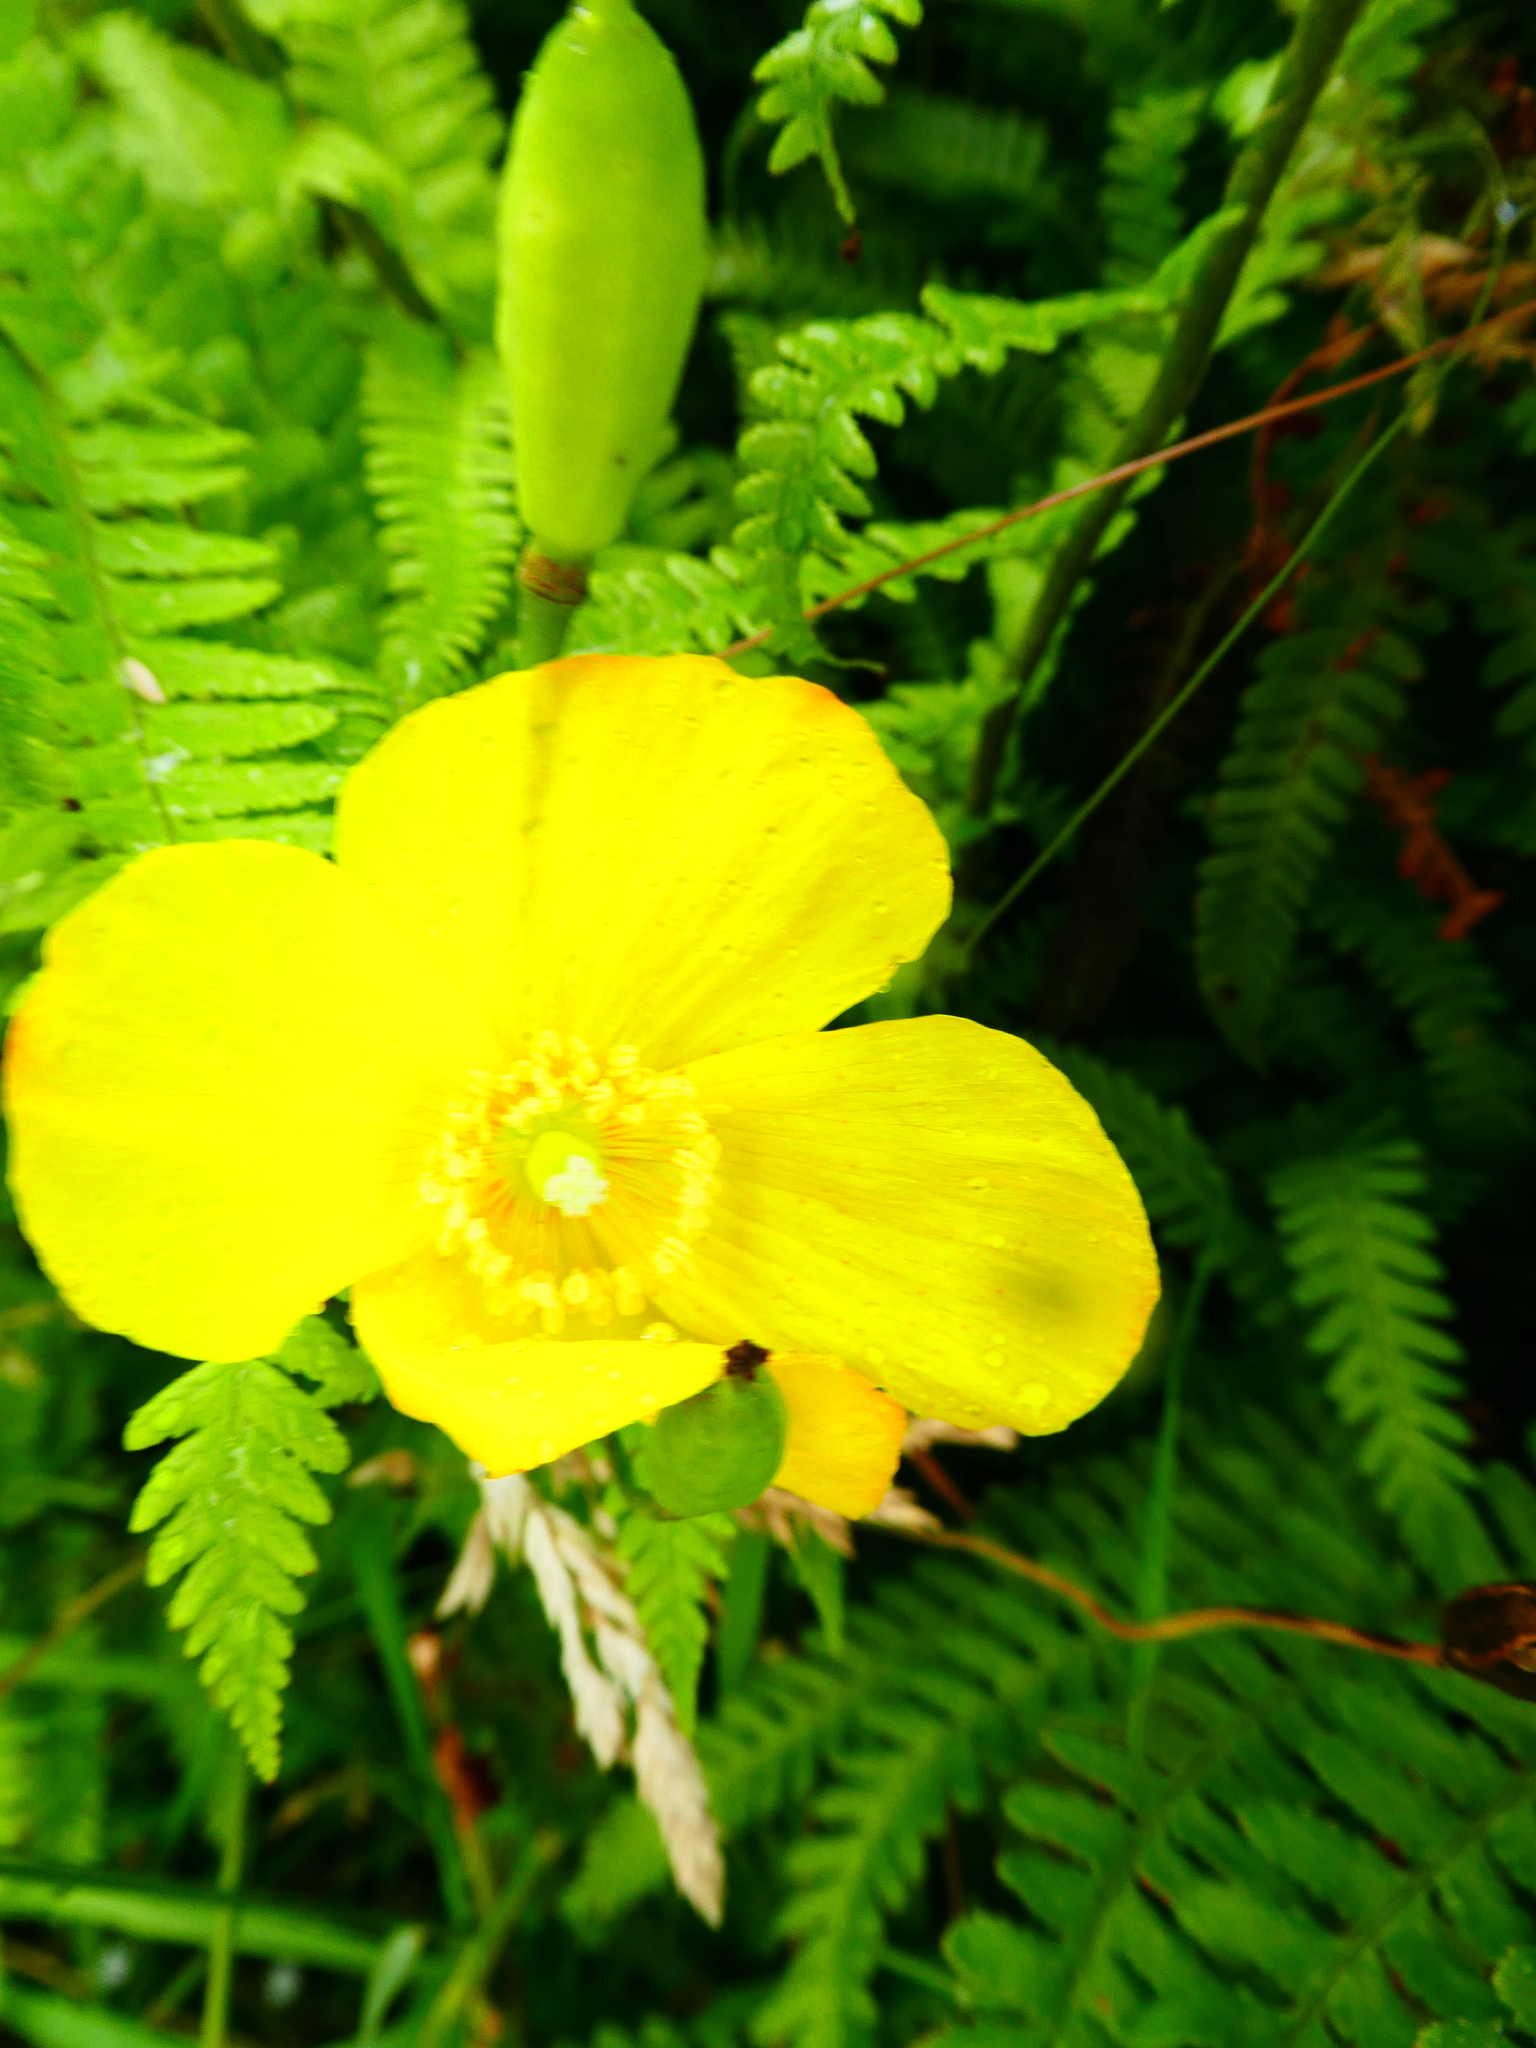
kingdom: Plantae
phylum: Tracheophyta
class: Magnoliopsida
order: Ranunculales
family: Papaveraceae
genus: Papaver
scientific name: Papaver cambricum
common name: Poppy
